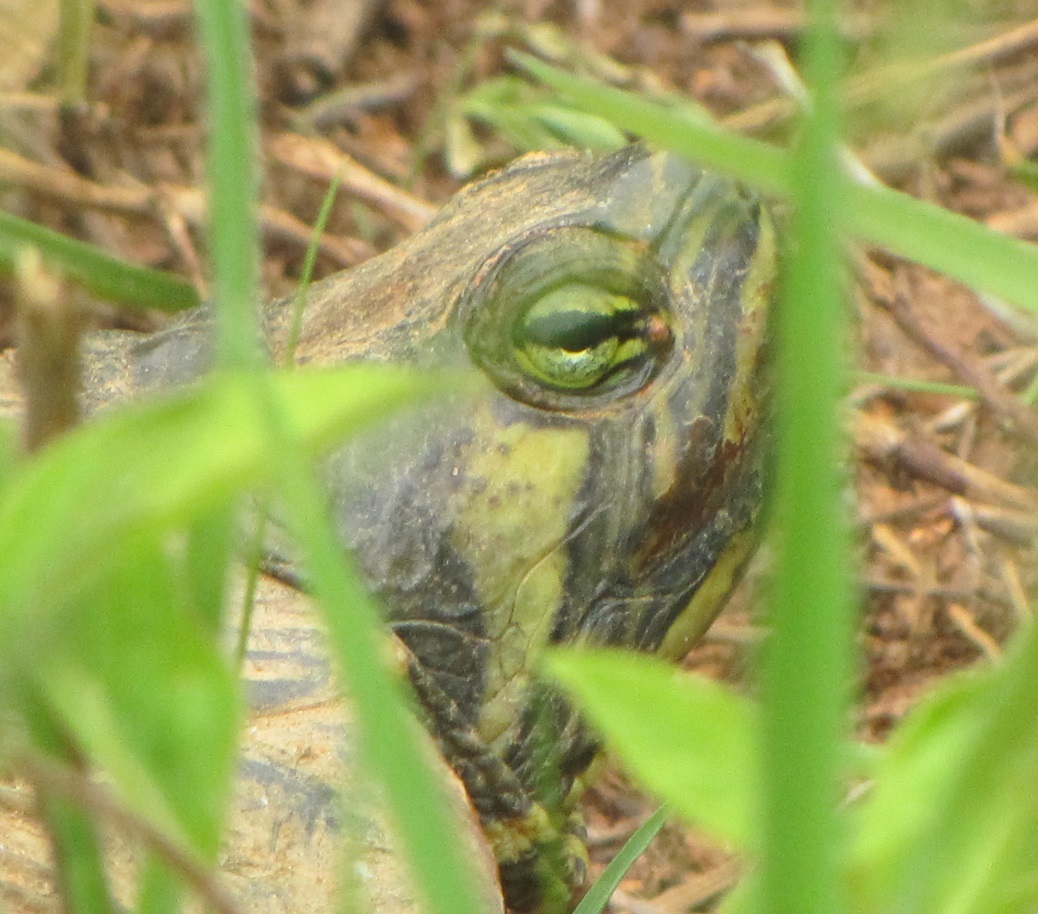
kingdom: Animalia
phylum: Chordata
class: Testudines
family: Emydidae
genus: Trachemys
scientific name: Trachemys scripta
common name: Slider
